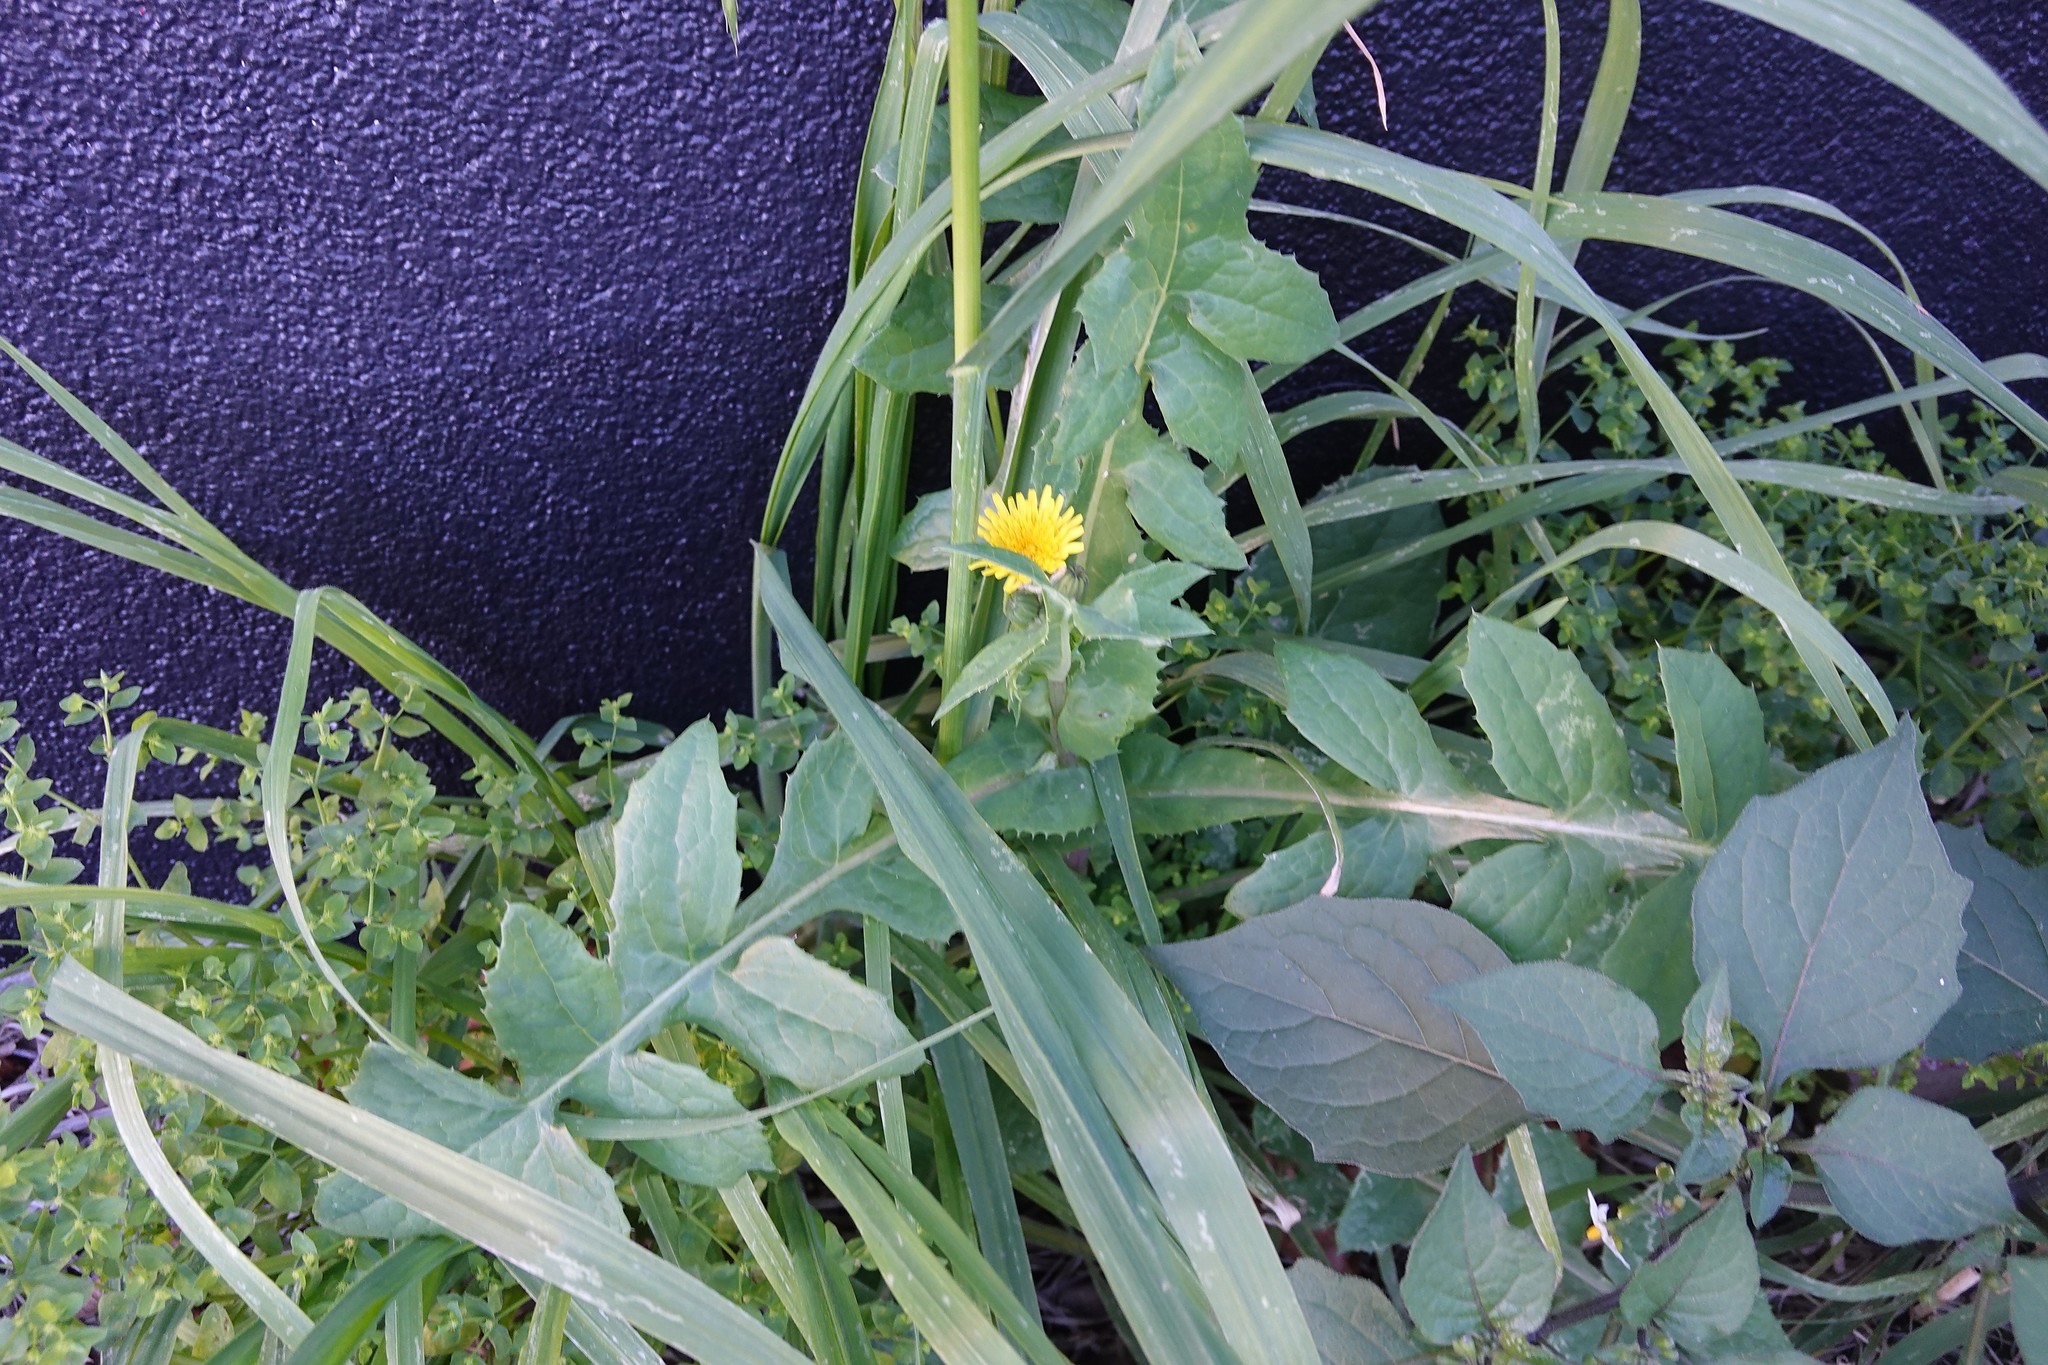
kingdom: Plantae
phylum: Tracheophyta
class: Magnoliopsida
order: Asterales
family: Asteraceae
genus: Sonchus
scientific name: Sonchus oleraceus
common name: Common sowthistle
